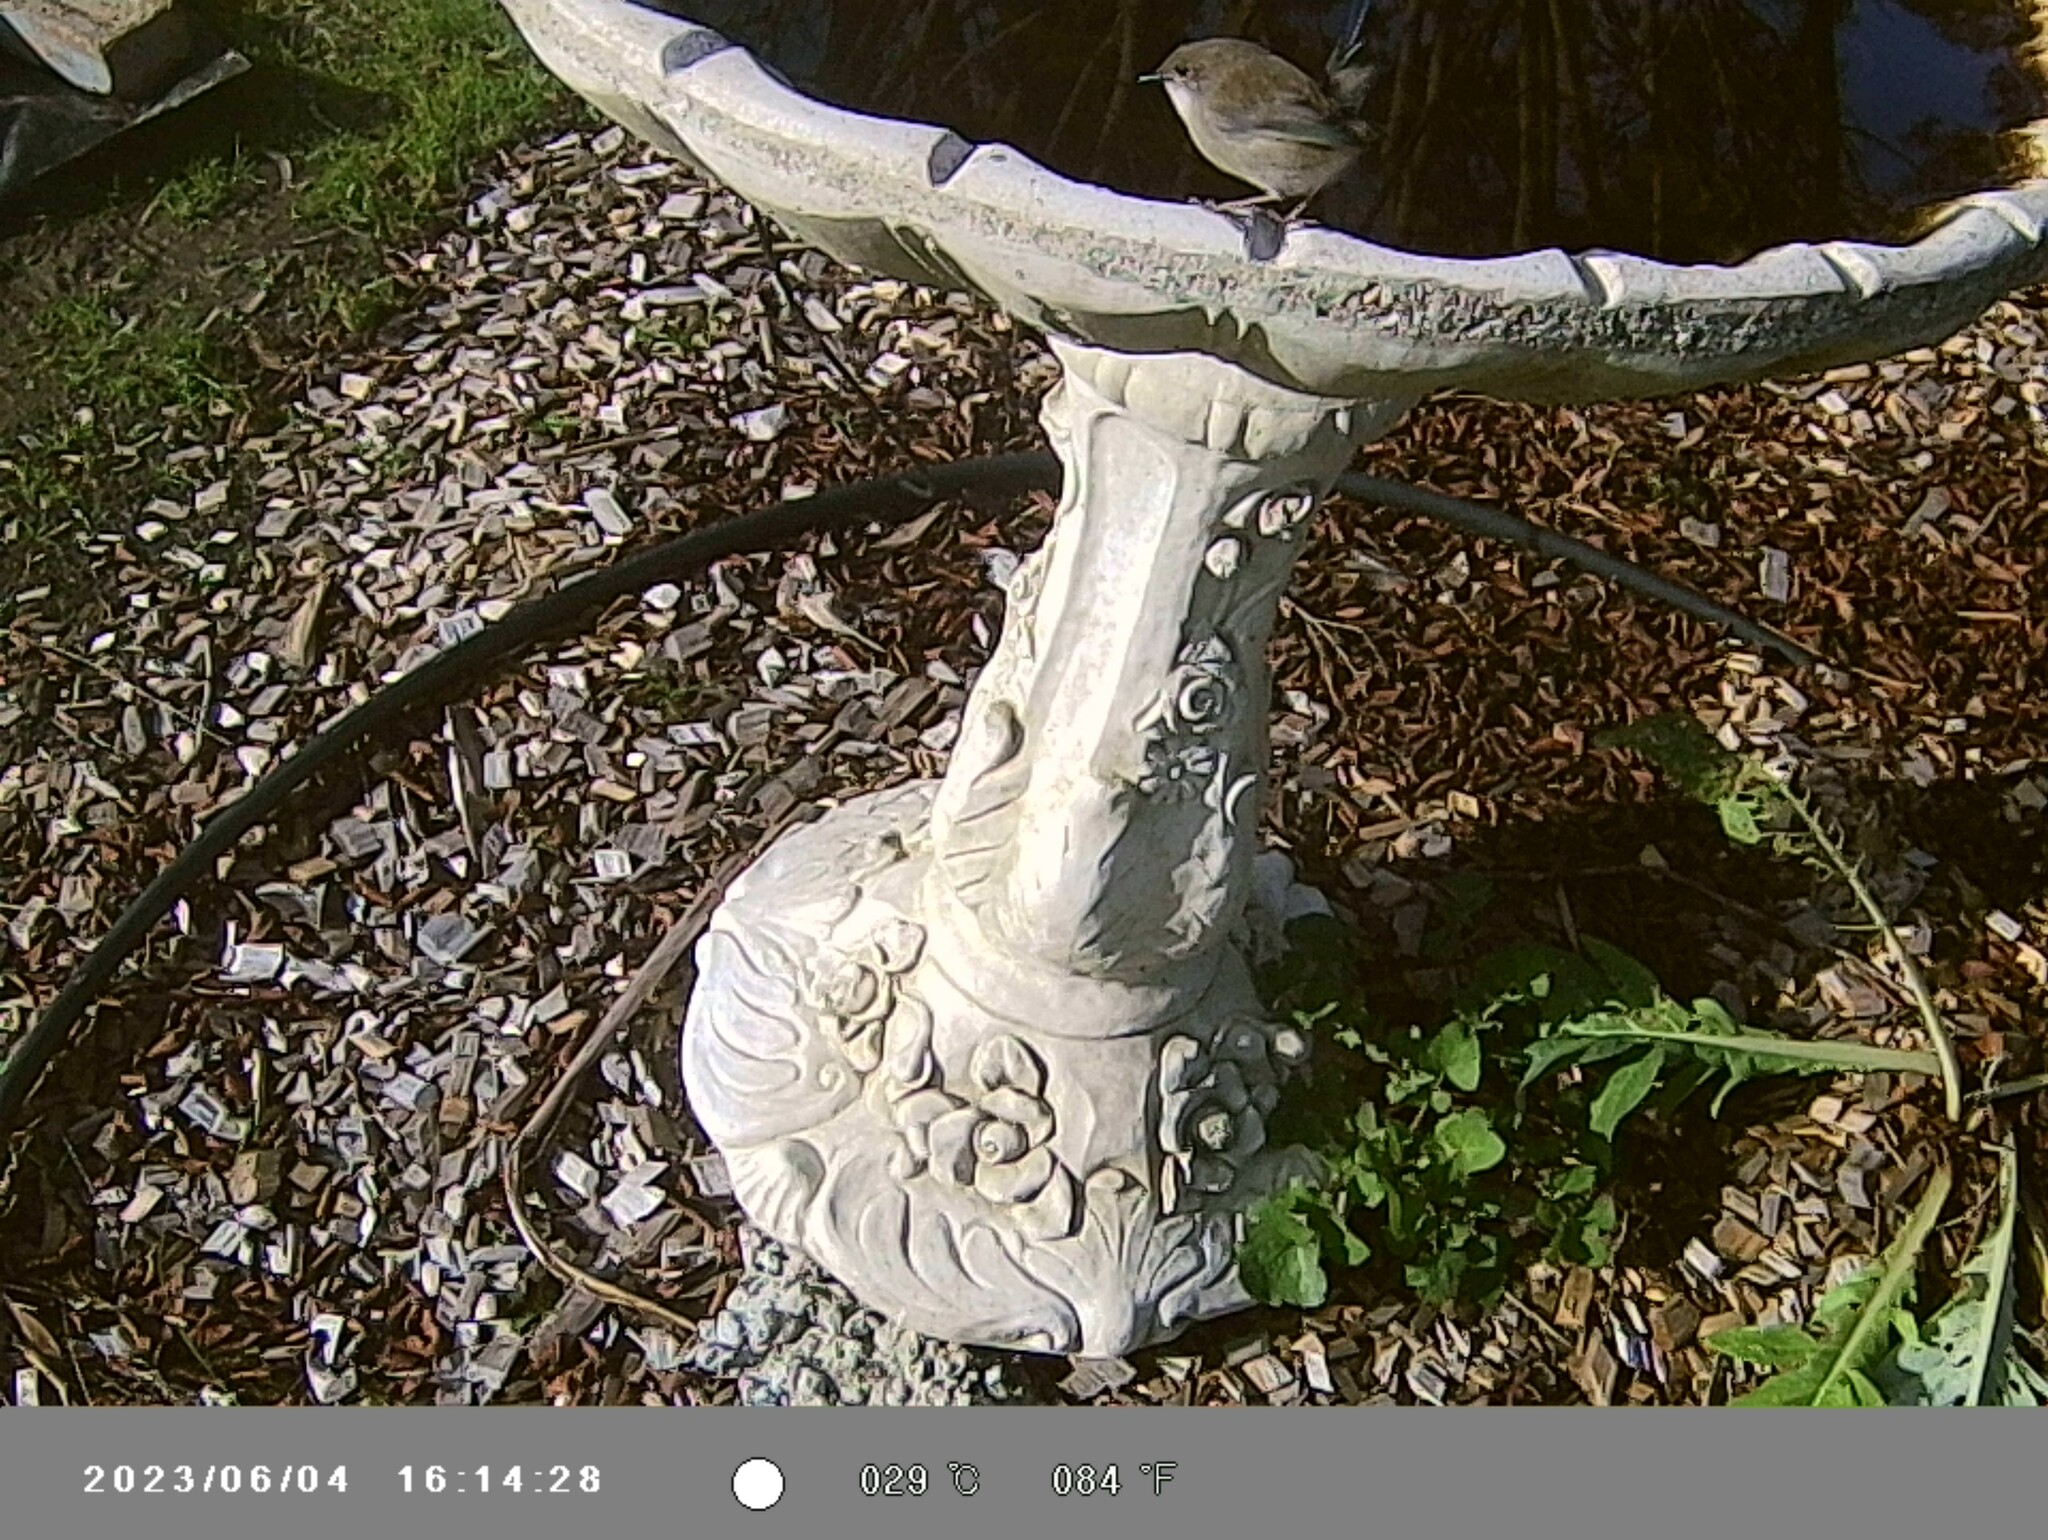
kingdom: Animalia
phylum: Chordata
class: Aves
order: Passeriformes
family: Maluridae
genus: Malurus
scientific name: Malurus cyaneus
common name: Superb fairywren
